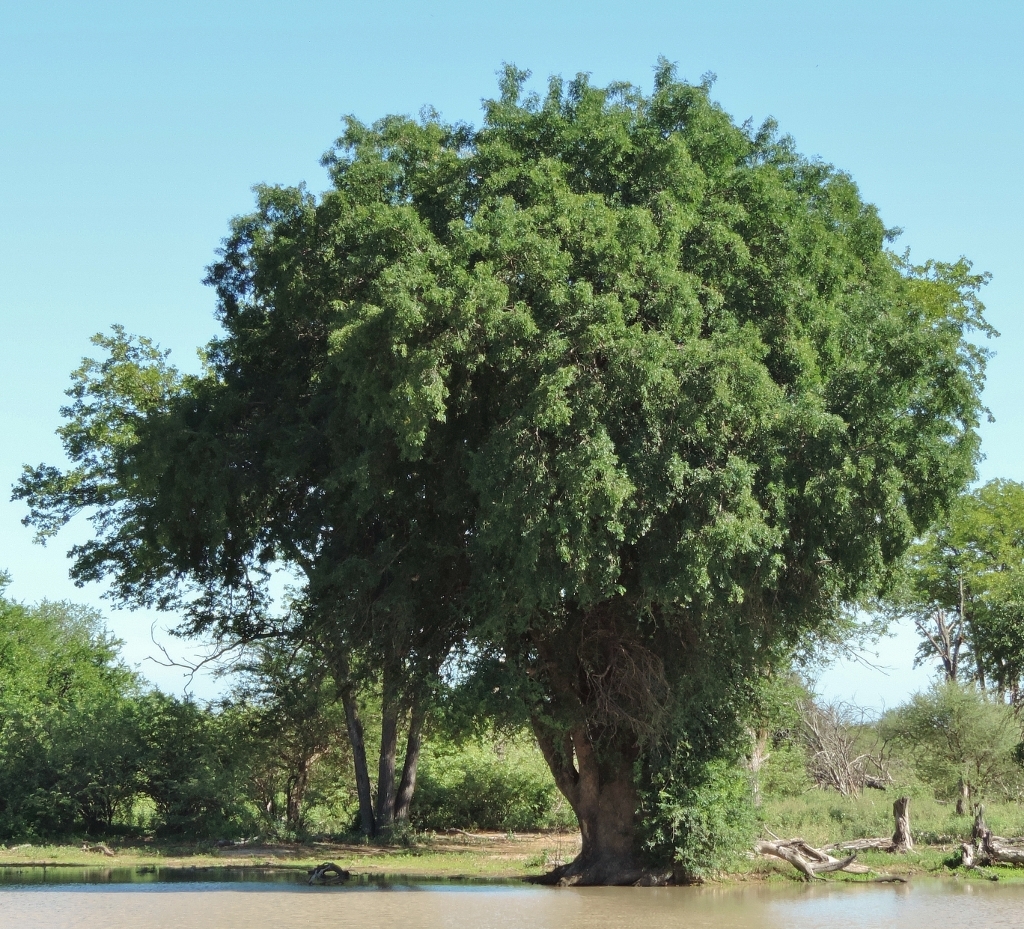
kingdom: Plantae
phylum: Tracheophyta
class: Magnoliopsida
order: Fabales
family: Fabaceae
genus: Xanthocercis
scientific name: Xanthocercis zambesiaca
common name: Nyala-tree
